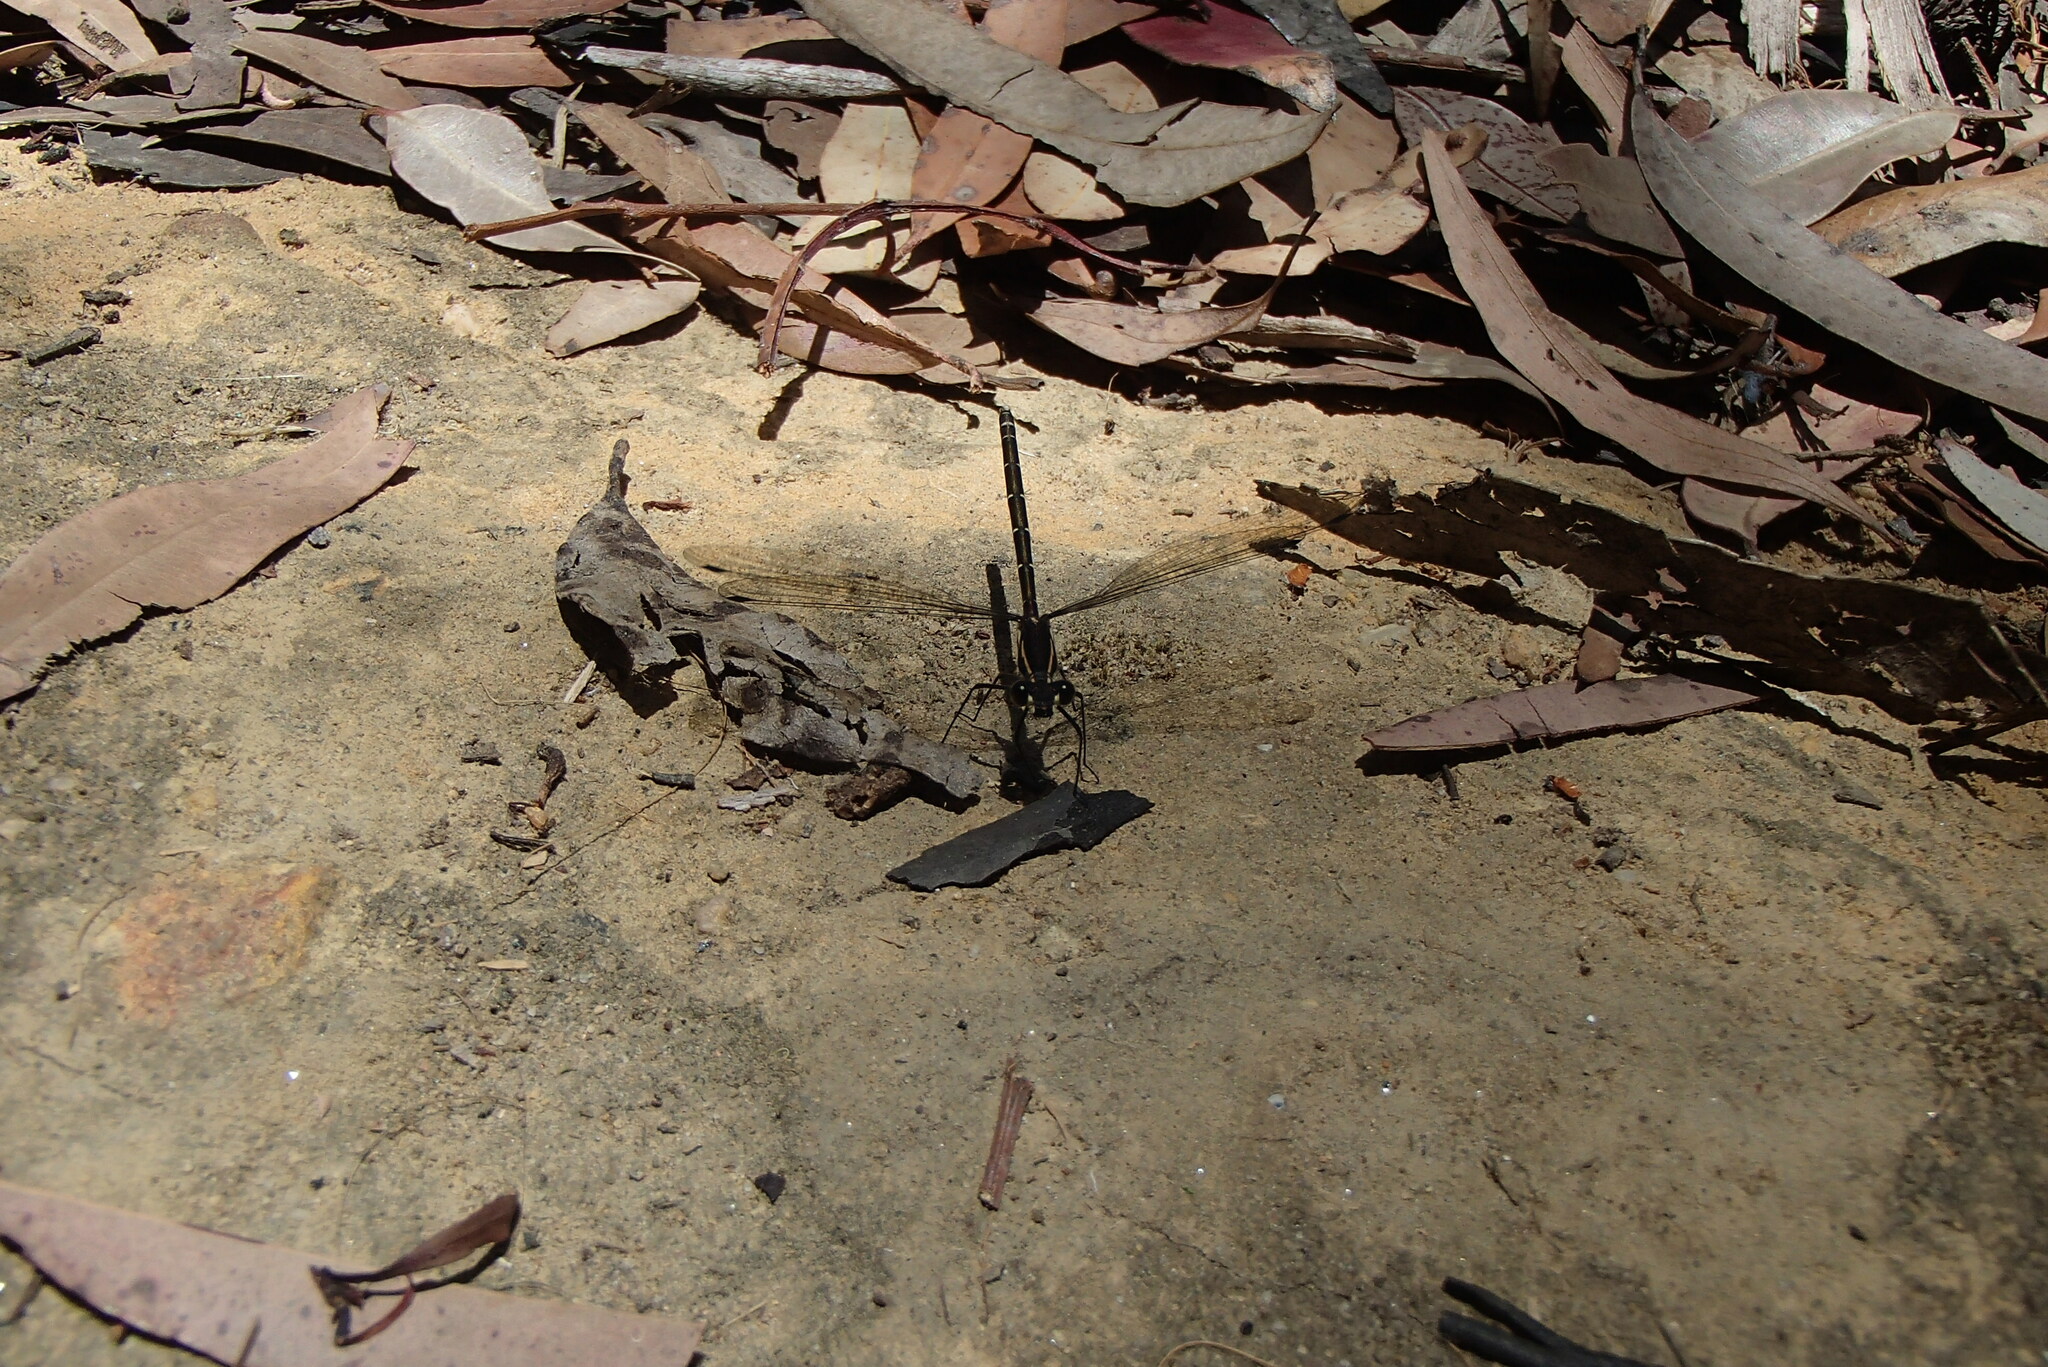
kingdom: Animalia
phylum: Arthropoda
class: Insecta
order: Odonata
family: Argiolestidae
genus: Austroargiolestes
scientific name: Austroargiolestes isabellae
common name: Sydney flatwing
